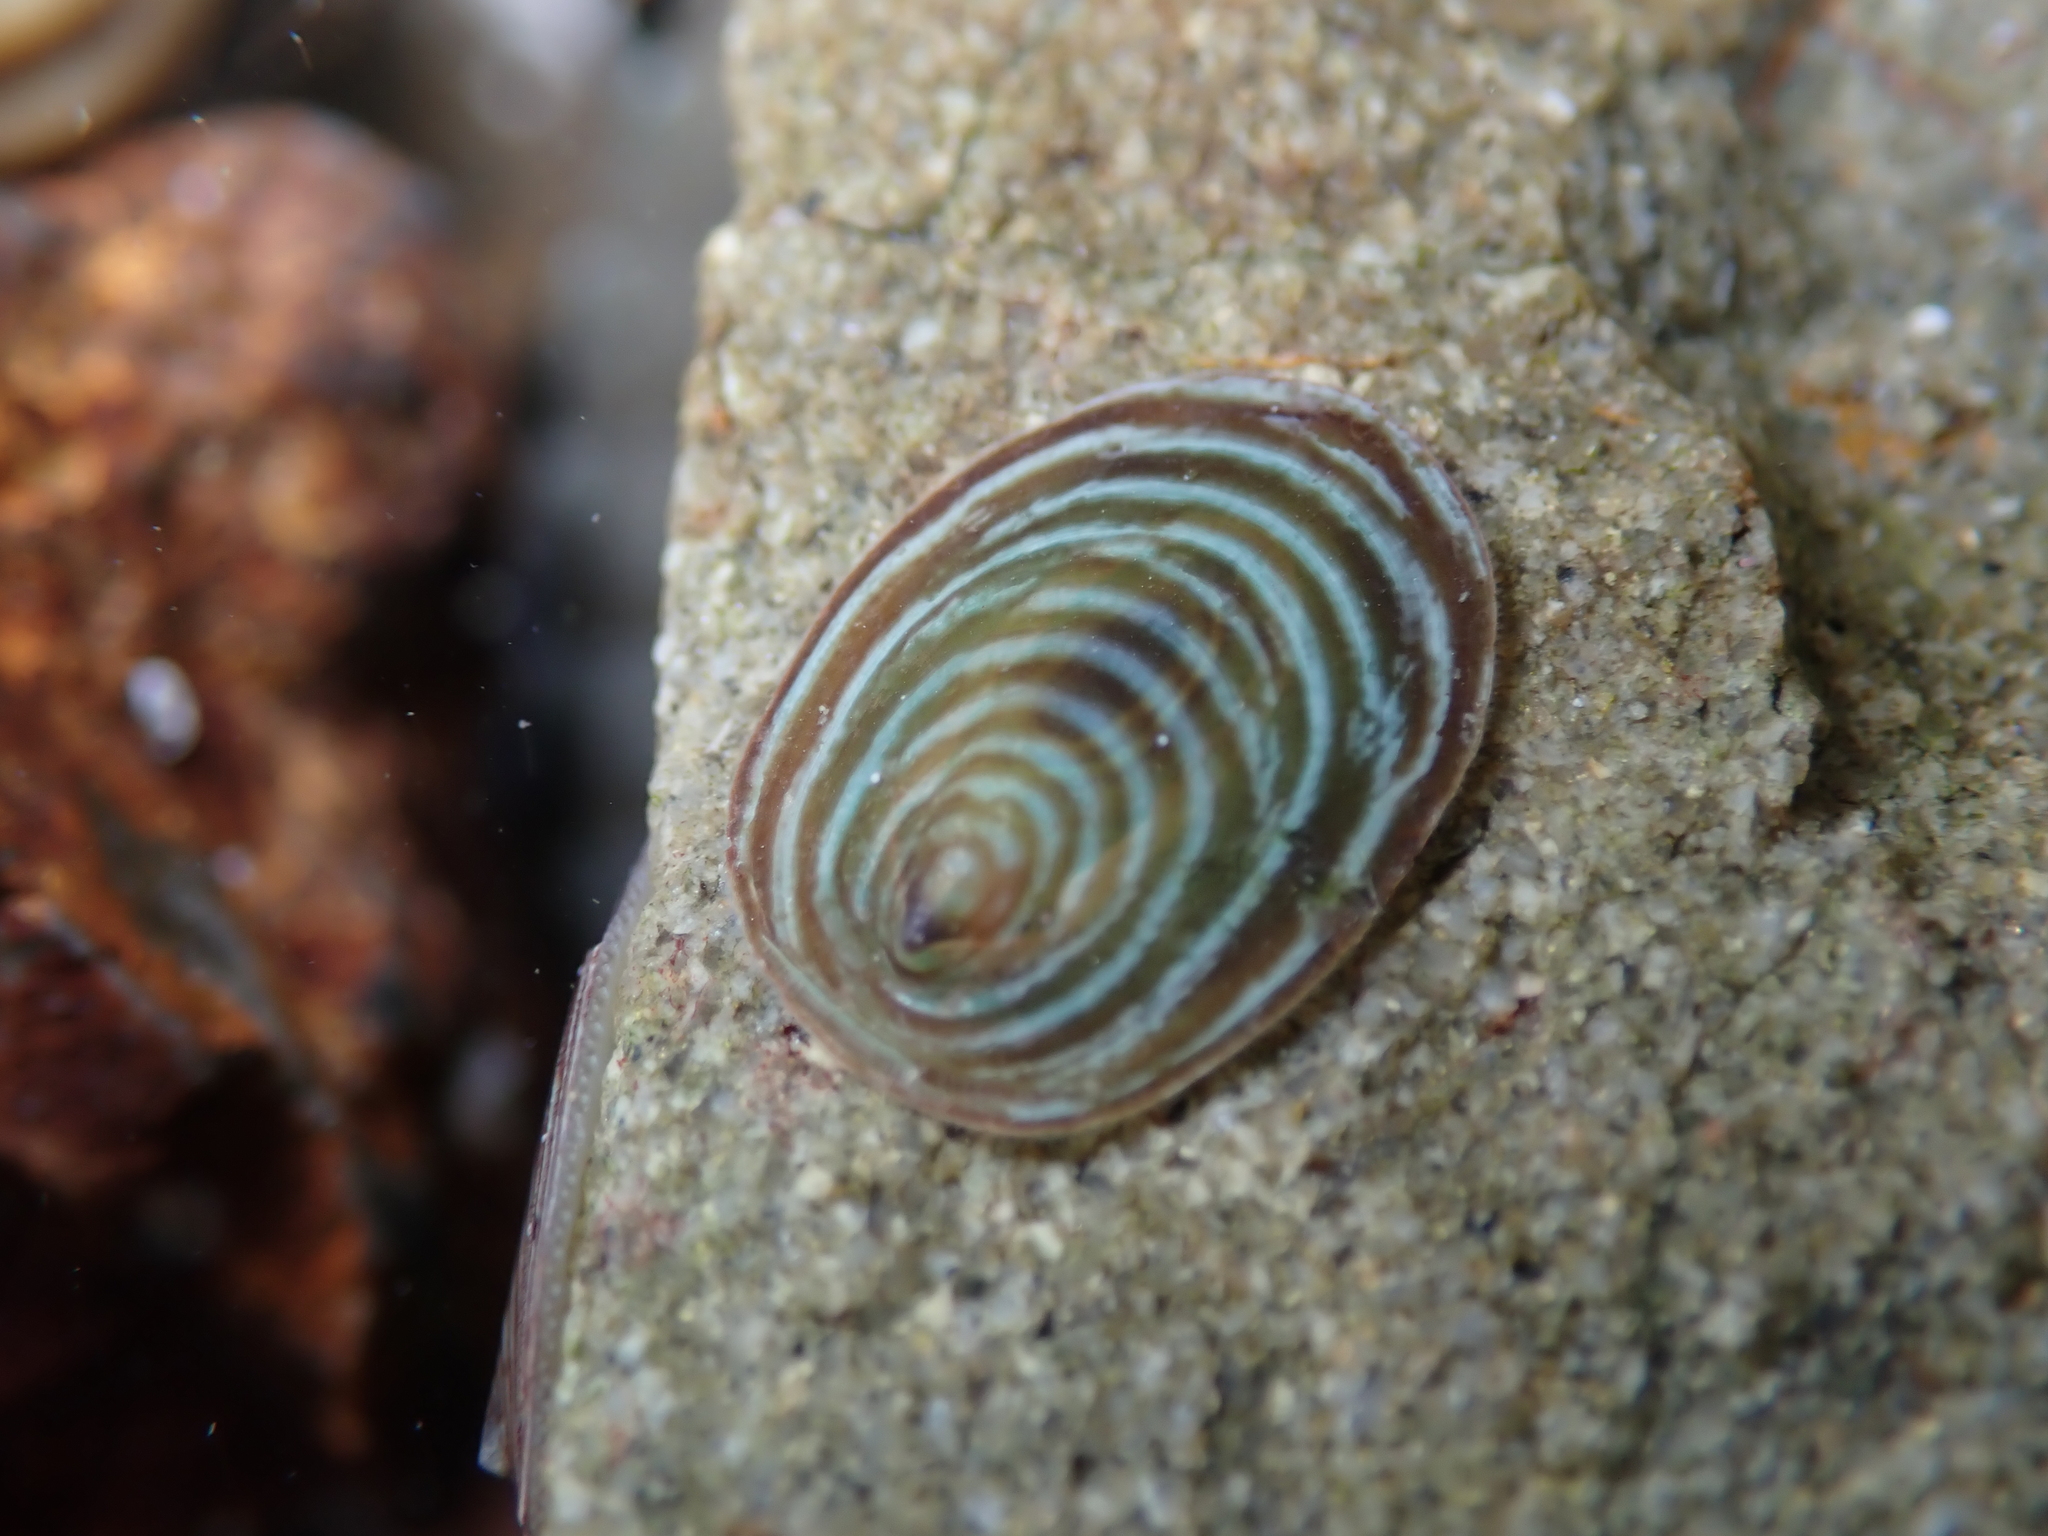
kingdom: Animalia
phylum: Mollusca
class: Gastropoda
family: Lottiidae
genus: Atalacmea
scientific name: Atalacmea fragilis
